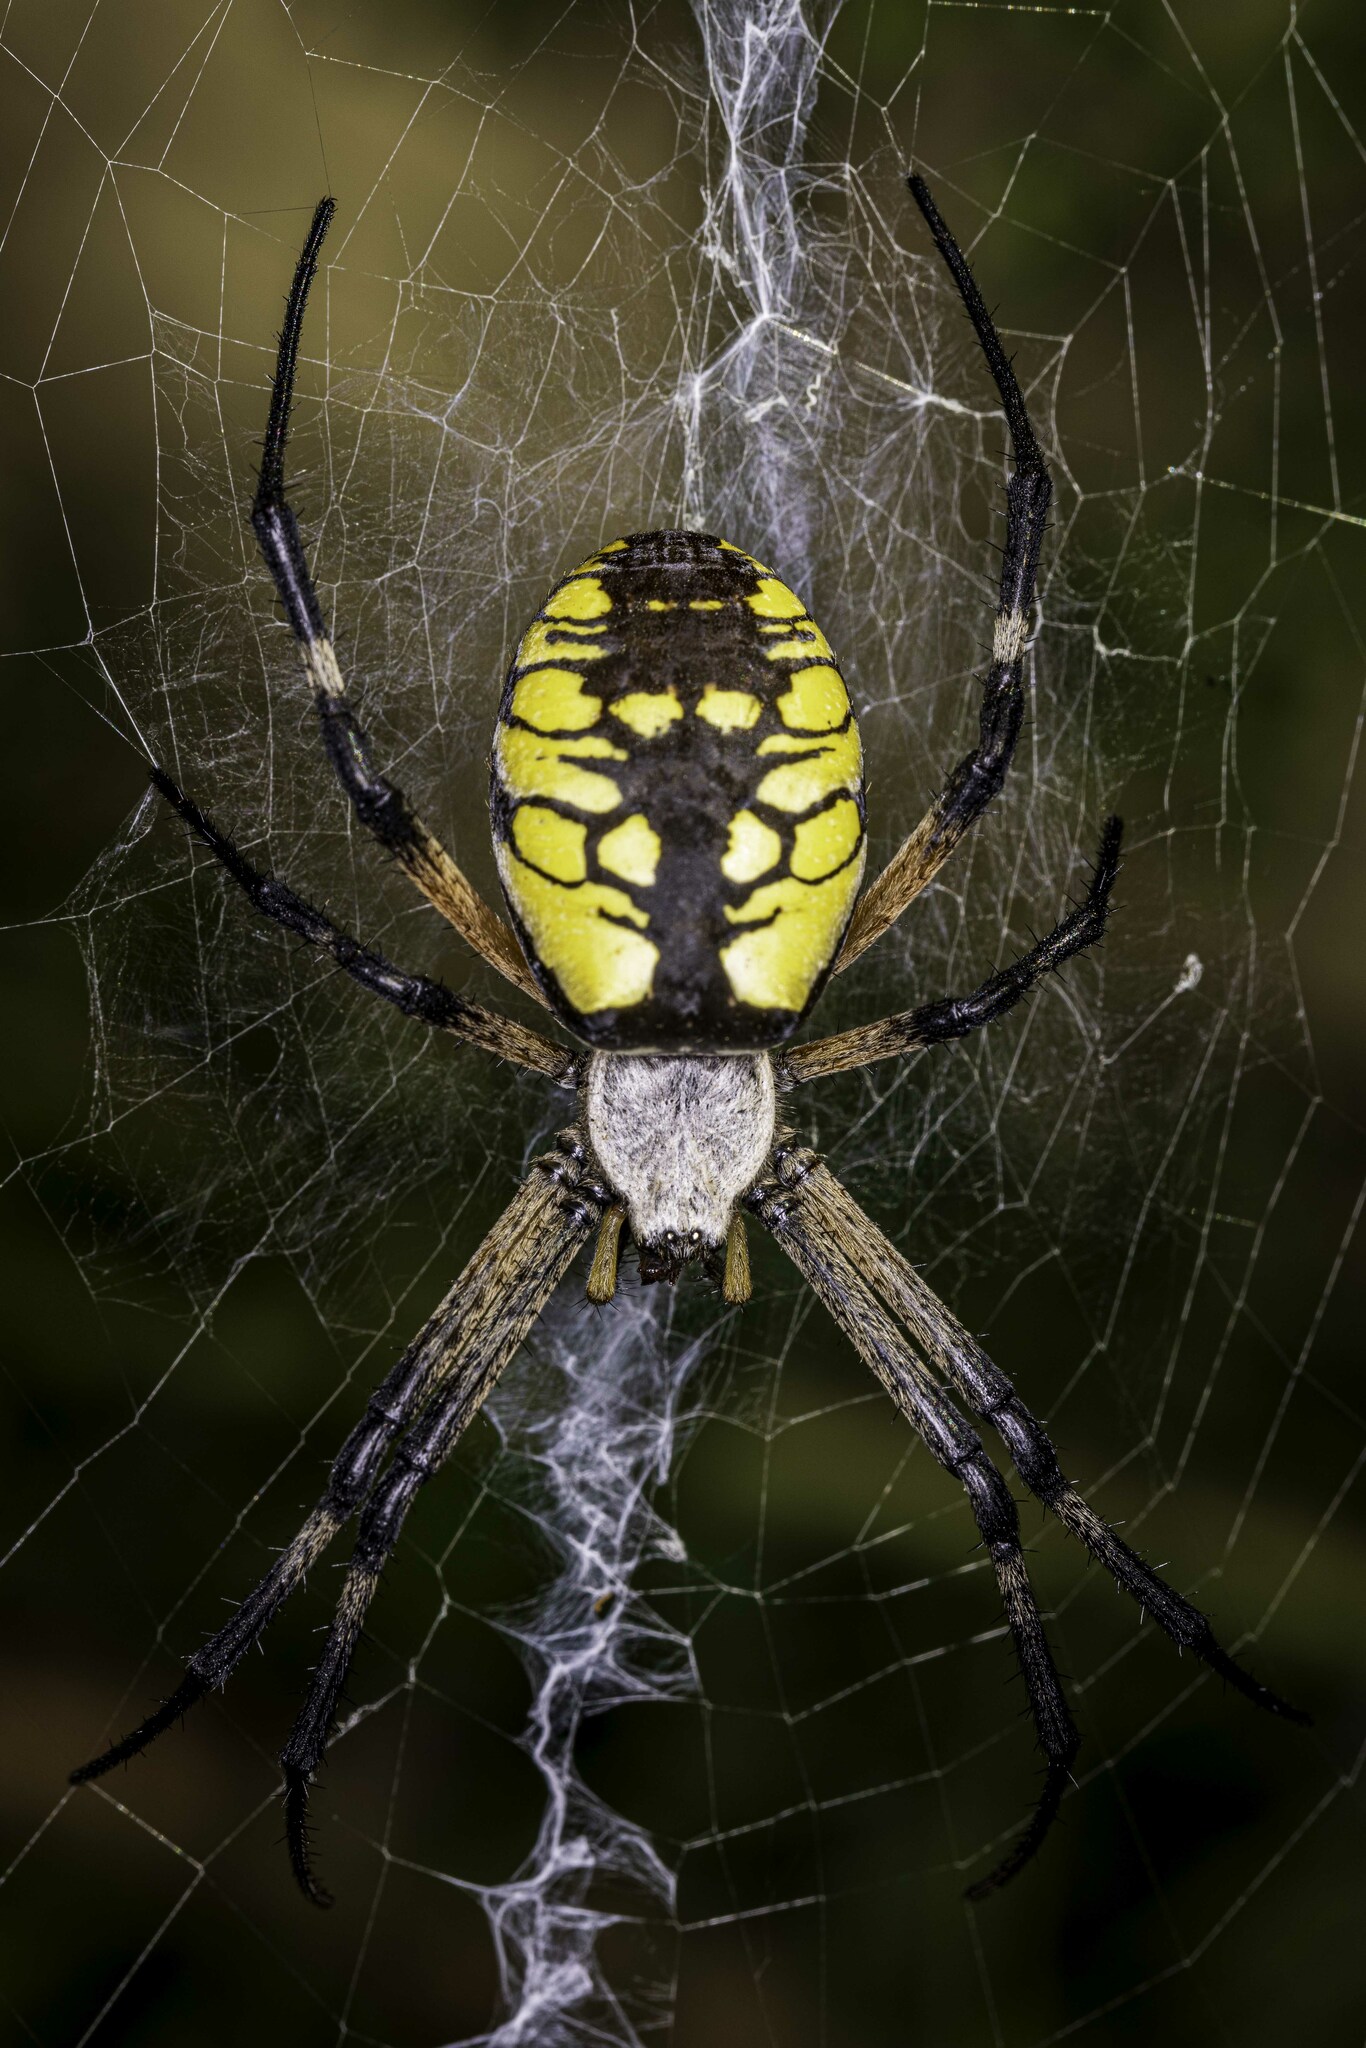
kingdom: Animalia
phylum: Arthropoda
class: Arachnida
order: Araneae
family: Araneidae
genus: Argiope
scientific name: Argiope aurantia
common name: Orb weavers
